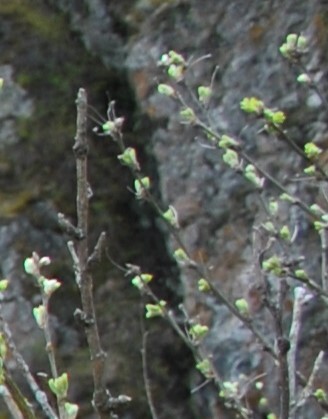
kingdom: Plantae
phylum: Tracheophyta
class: Magnoliopsida
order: Fabales
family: Fabaceae
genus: Caragana
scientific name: Caragana arborescens
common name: Siberian peashrub
